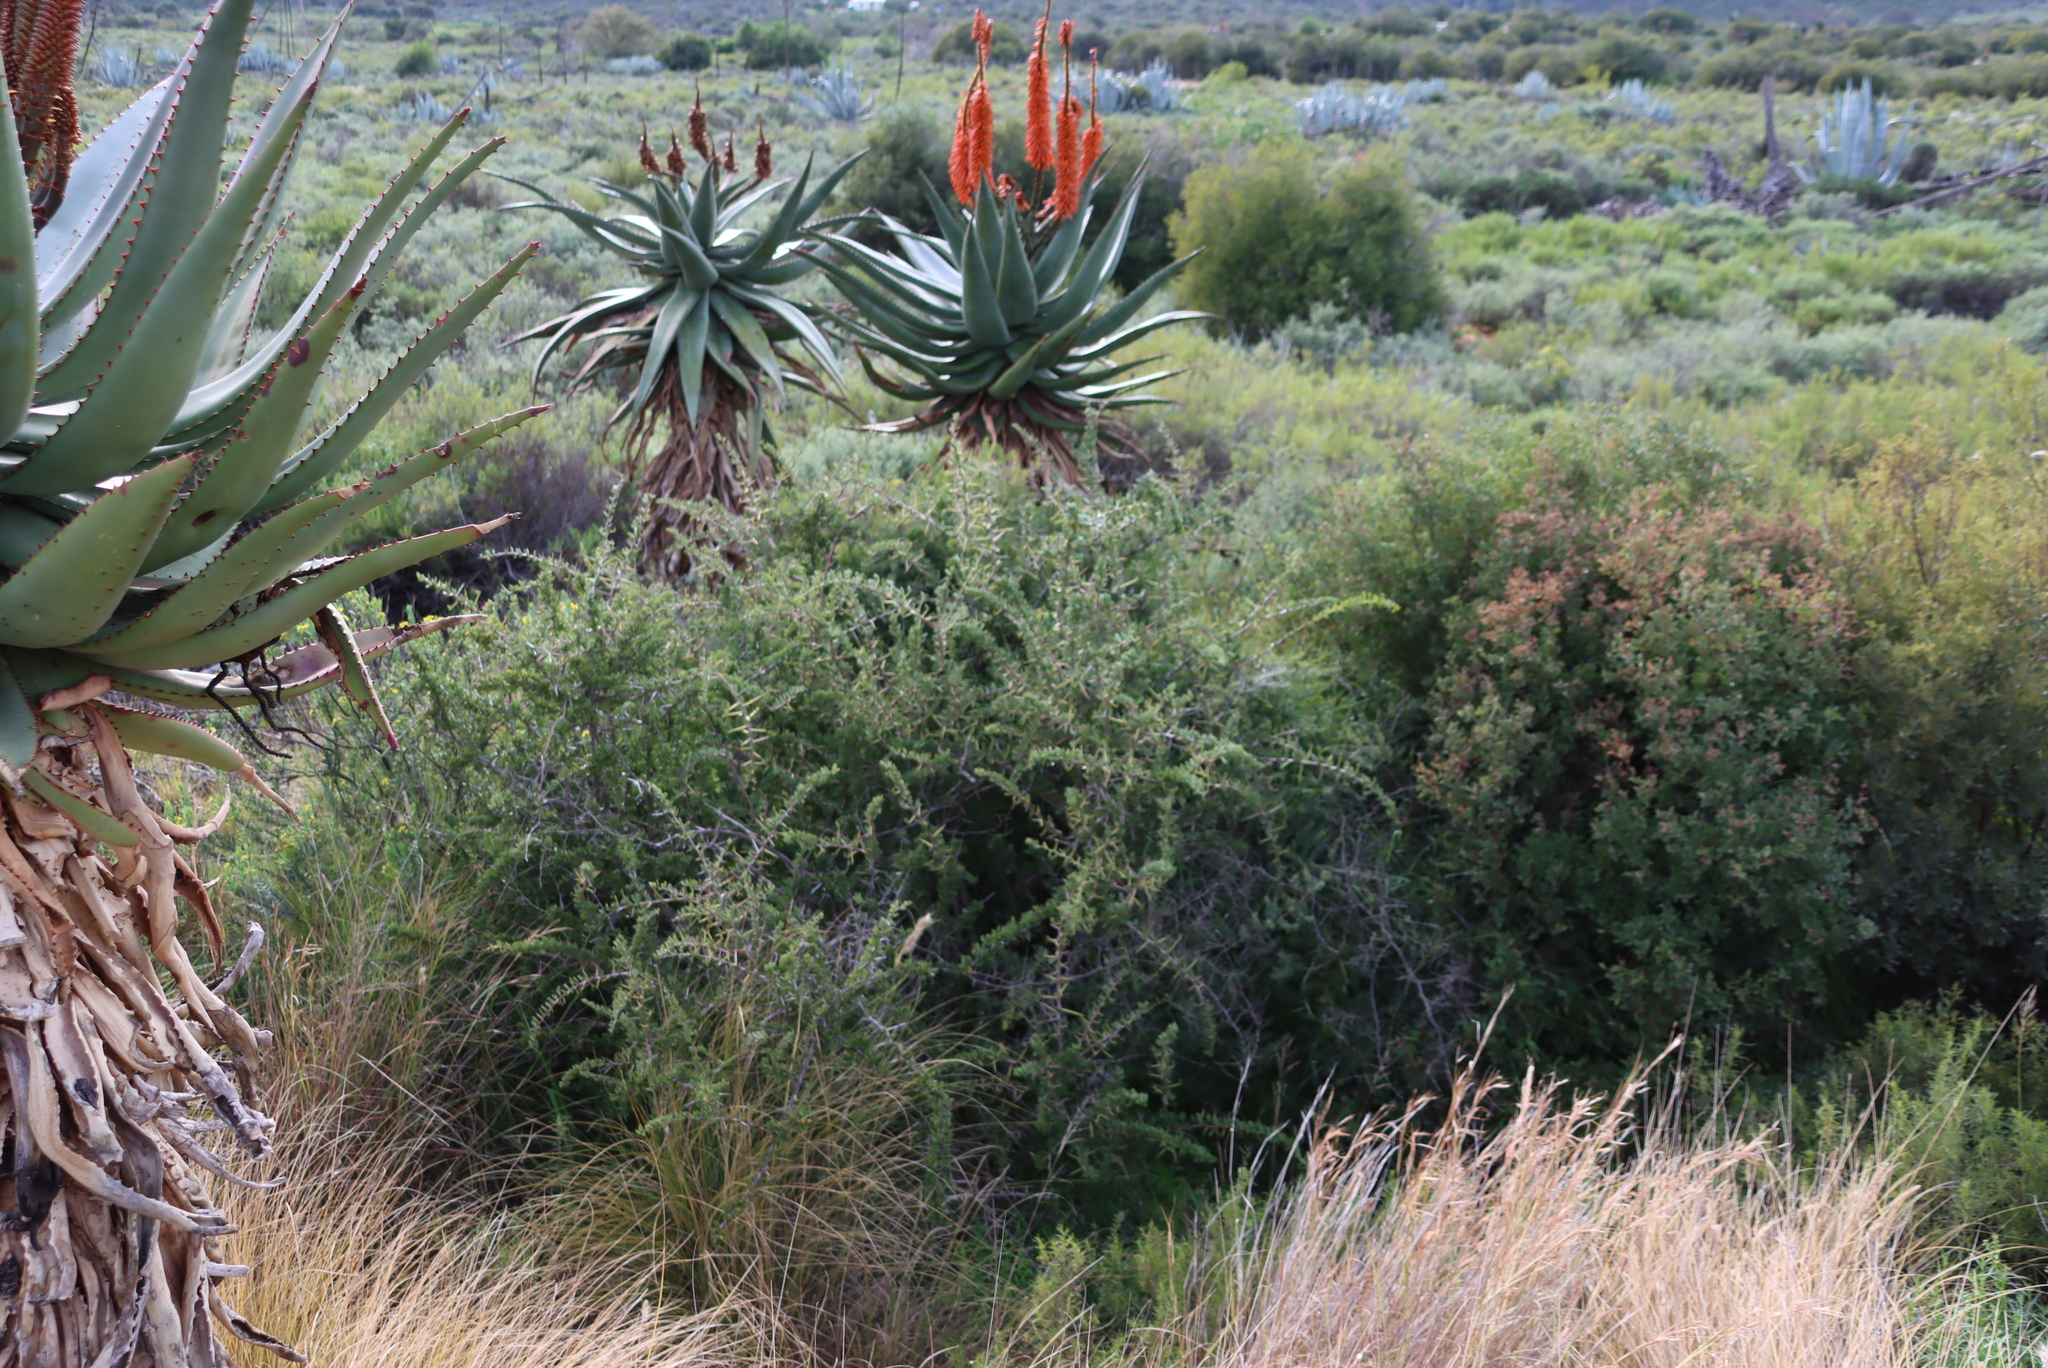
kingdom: Plantae
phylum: Tracheophyta
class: Liliopsida
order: Asparagales
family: Asphodelaceae
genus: Aloe
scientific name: Aloe ferox
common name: Bitter aloe
